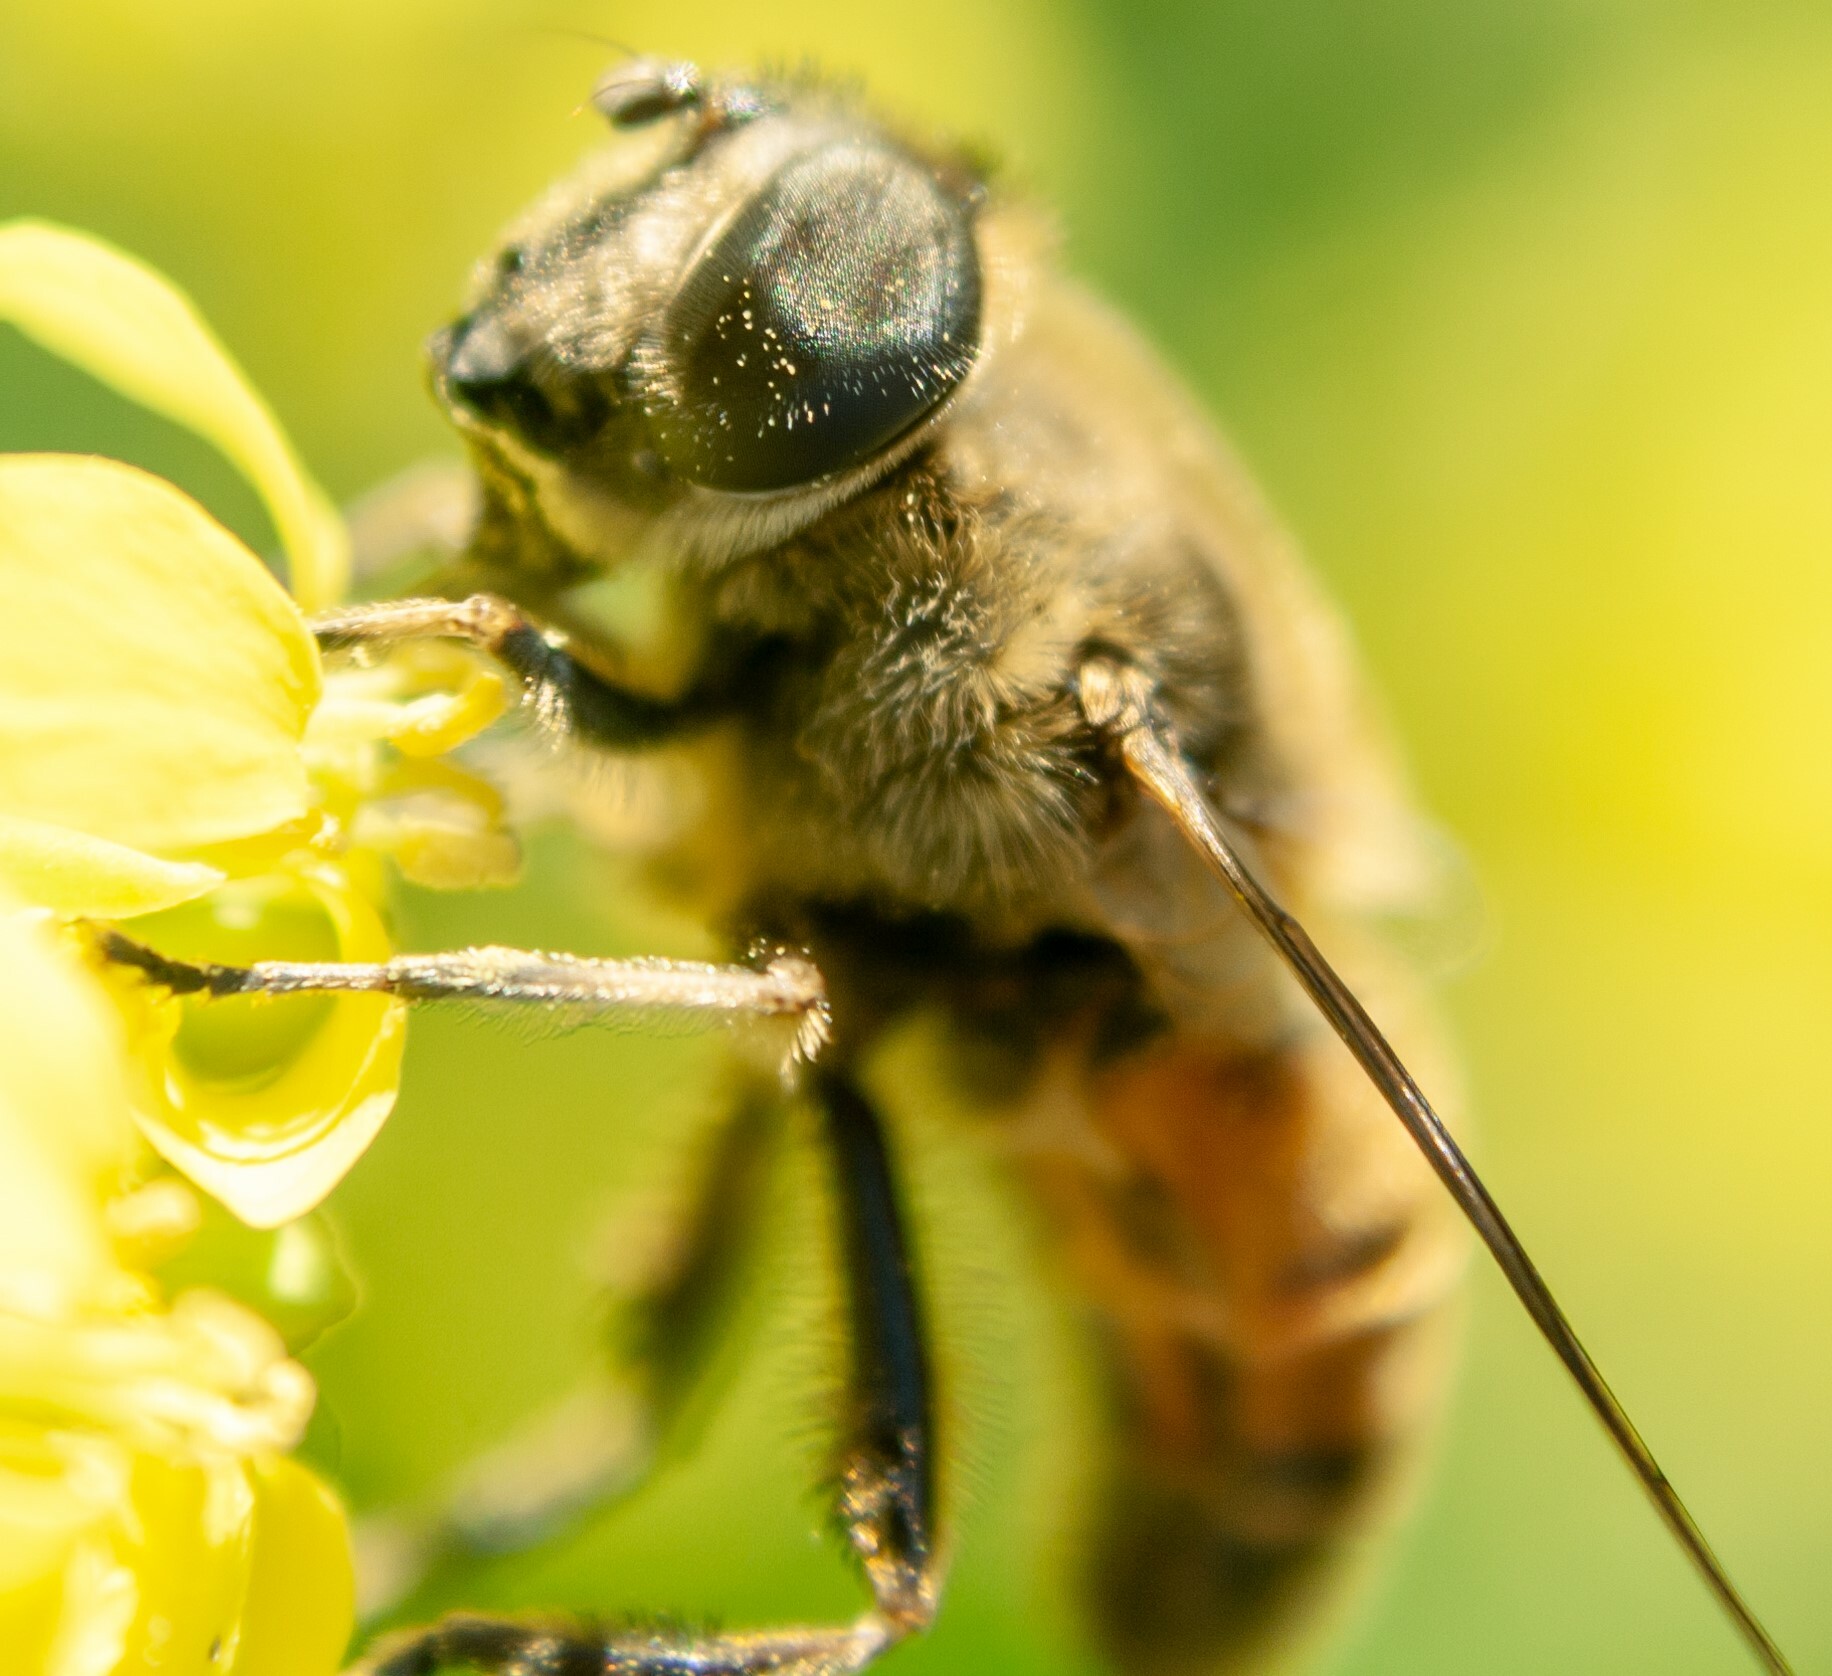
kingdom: Animalia
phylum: Arthropoda
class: Insecta
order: Diptera
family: Syrphidae
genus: Eristalis
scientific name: Eristalis tenax
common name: Drone fly
